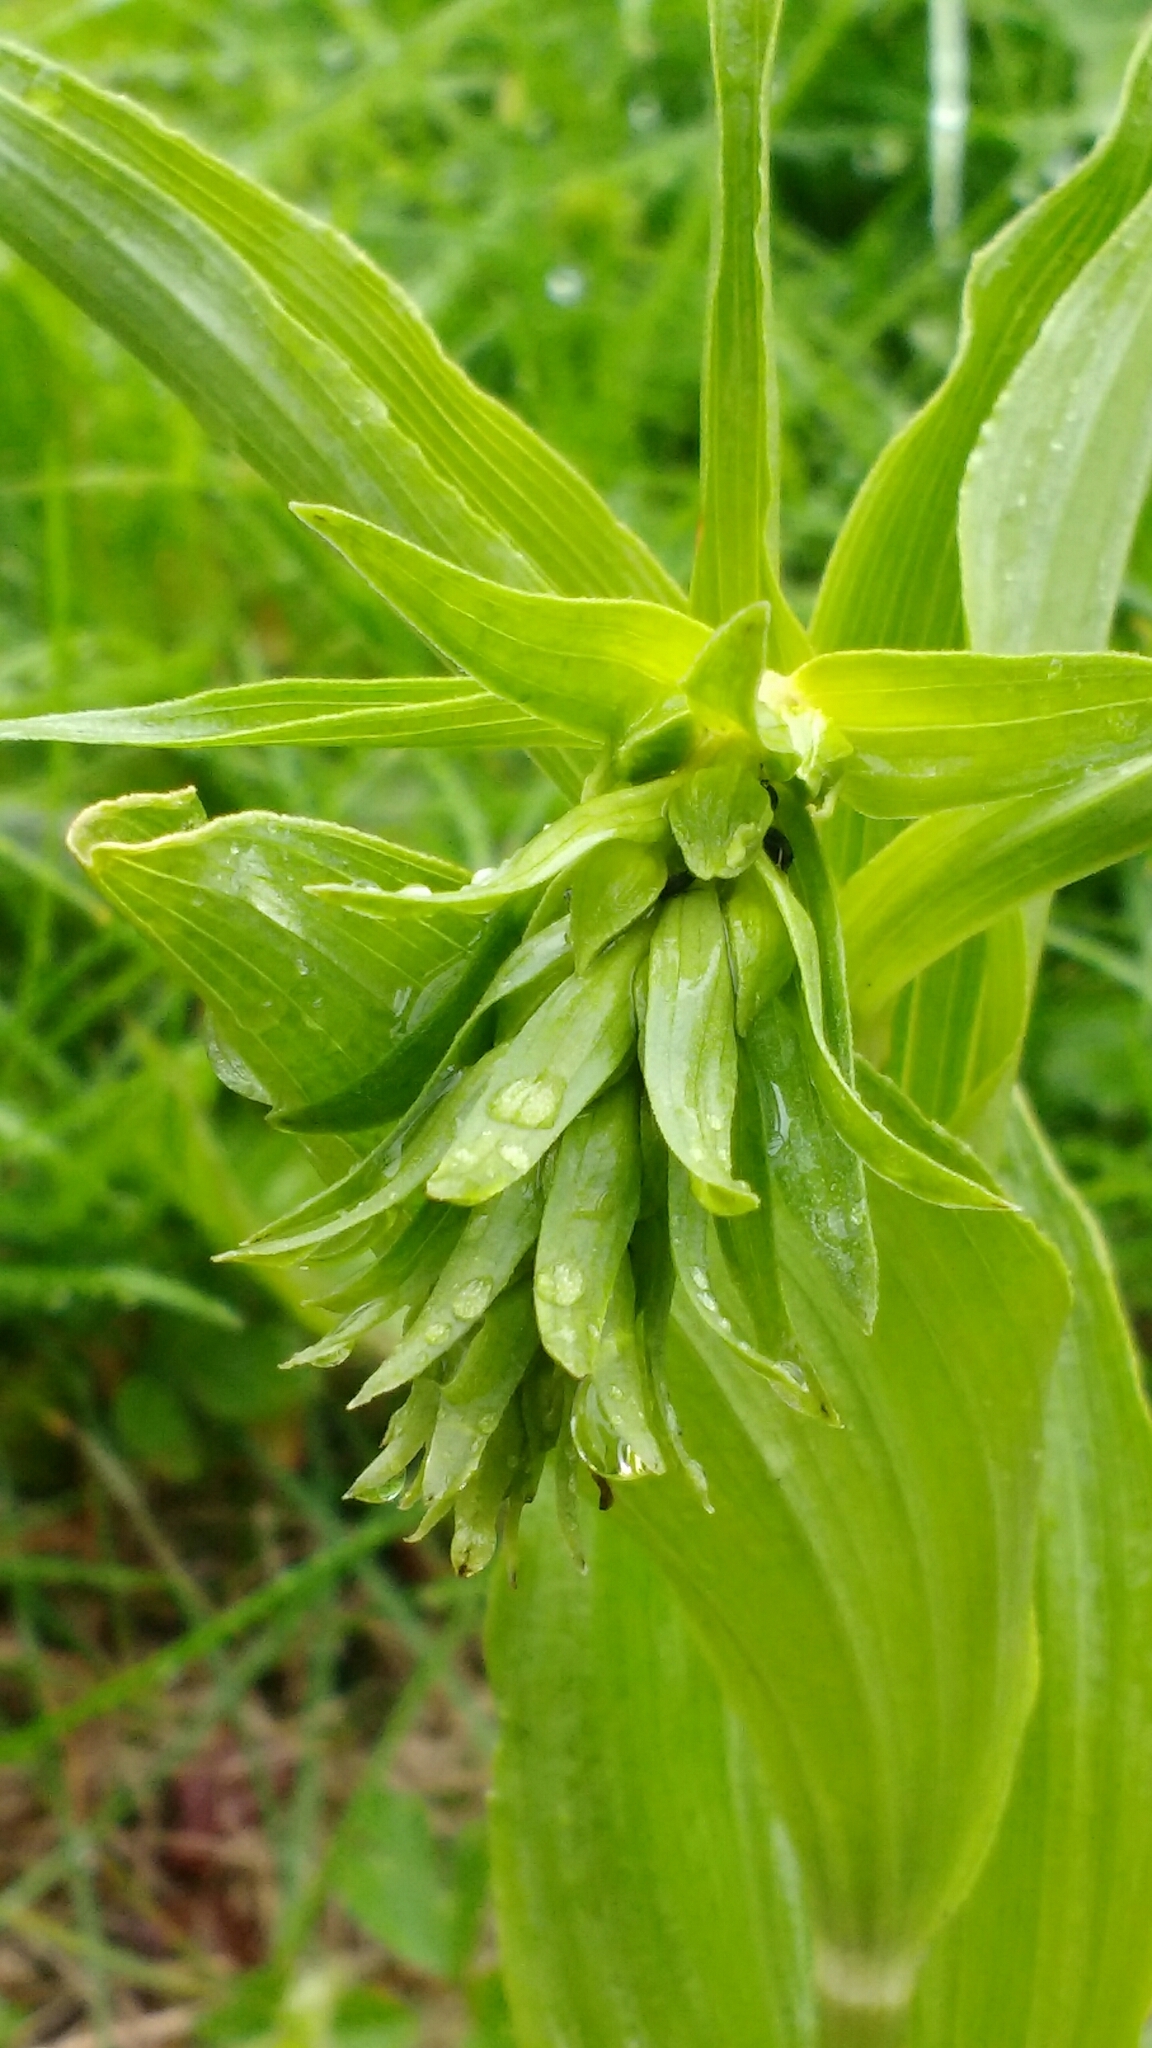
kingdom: Plantae
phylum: Tracheophyta
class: Liliopsida
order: Asparagales
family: Orchidaceae
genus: Epipactis
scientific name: Epipactis helleborine
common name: Broad-leaved helleborine
